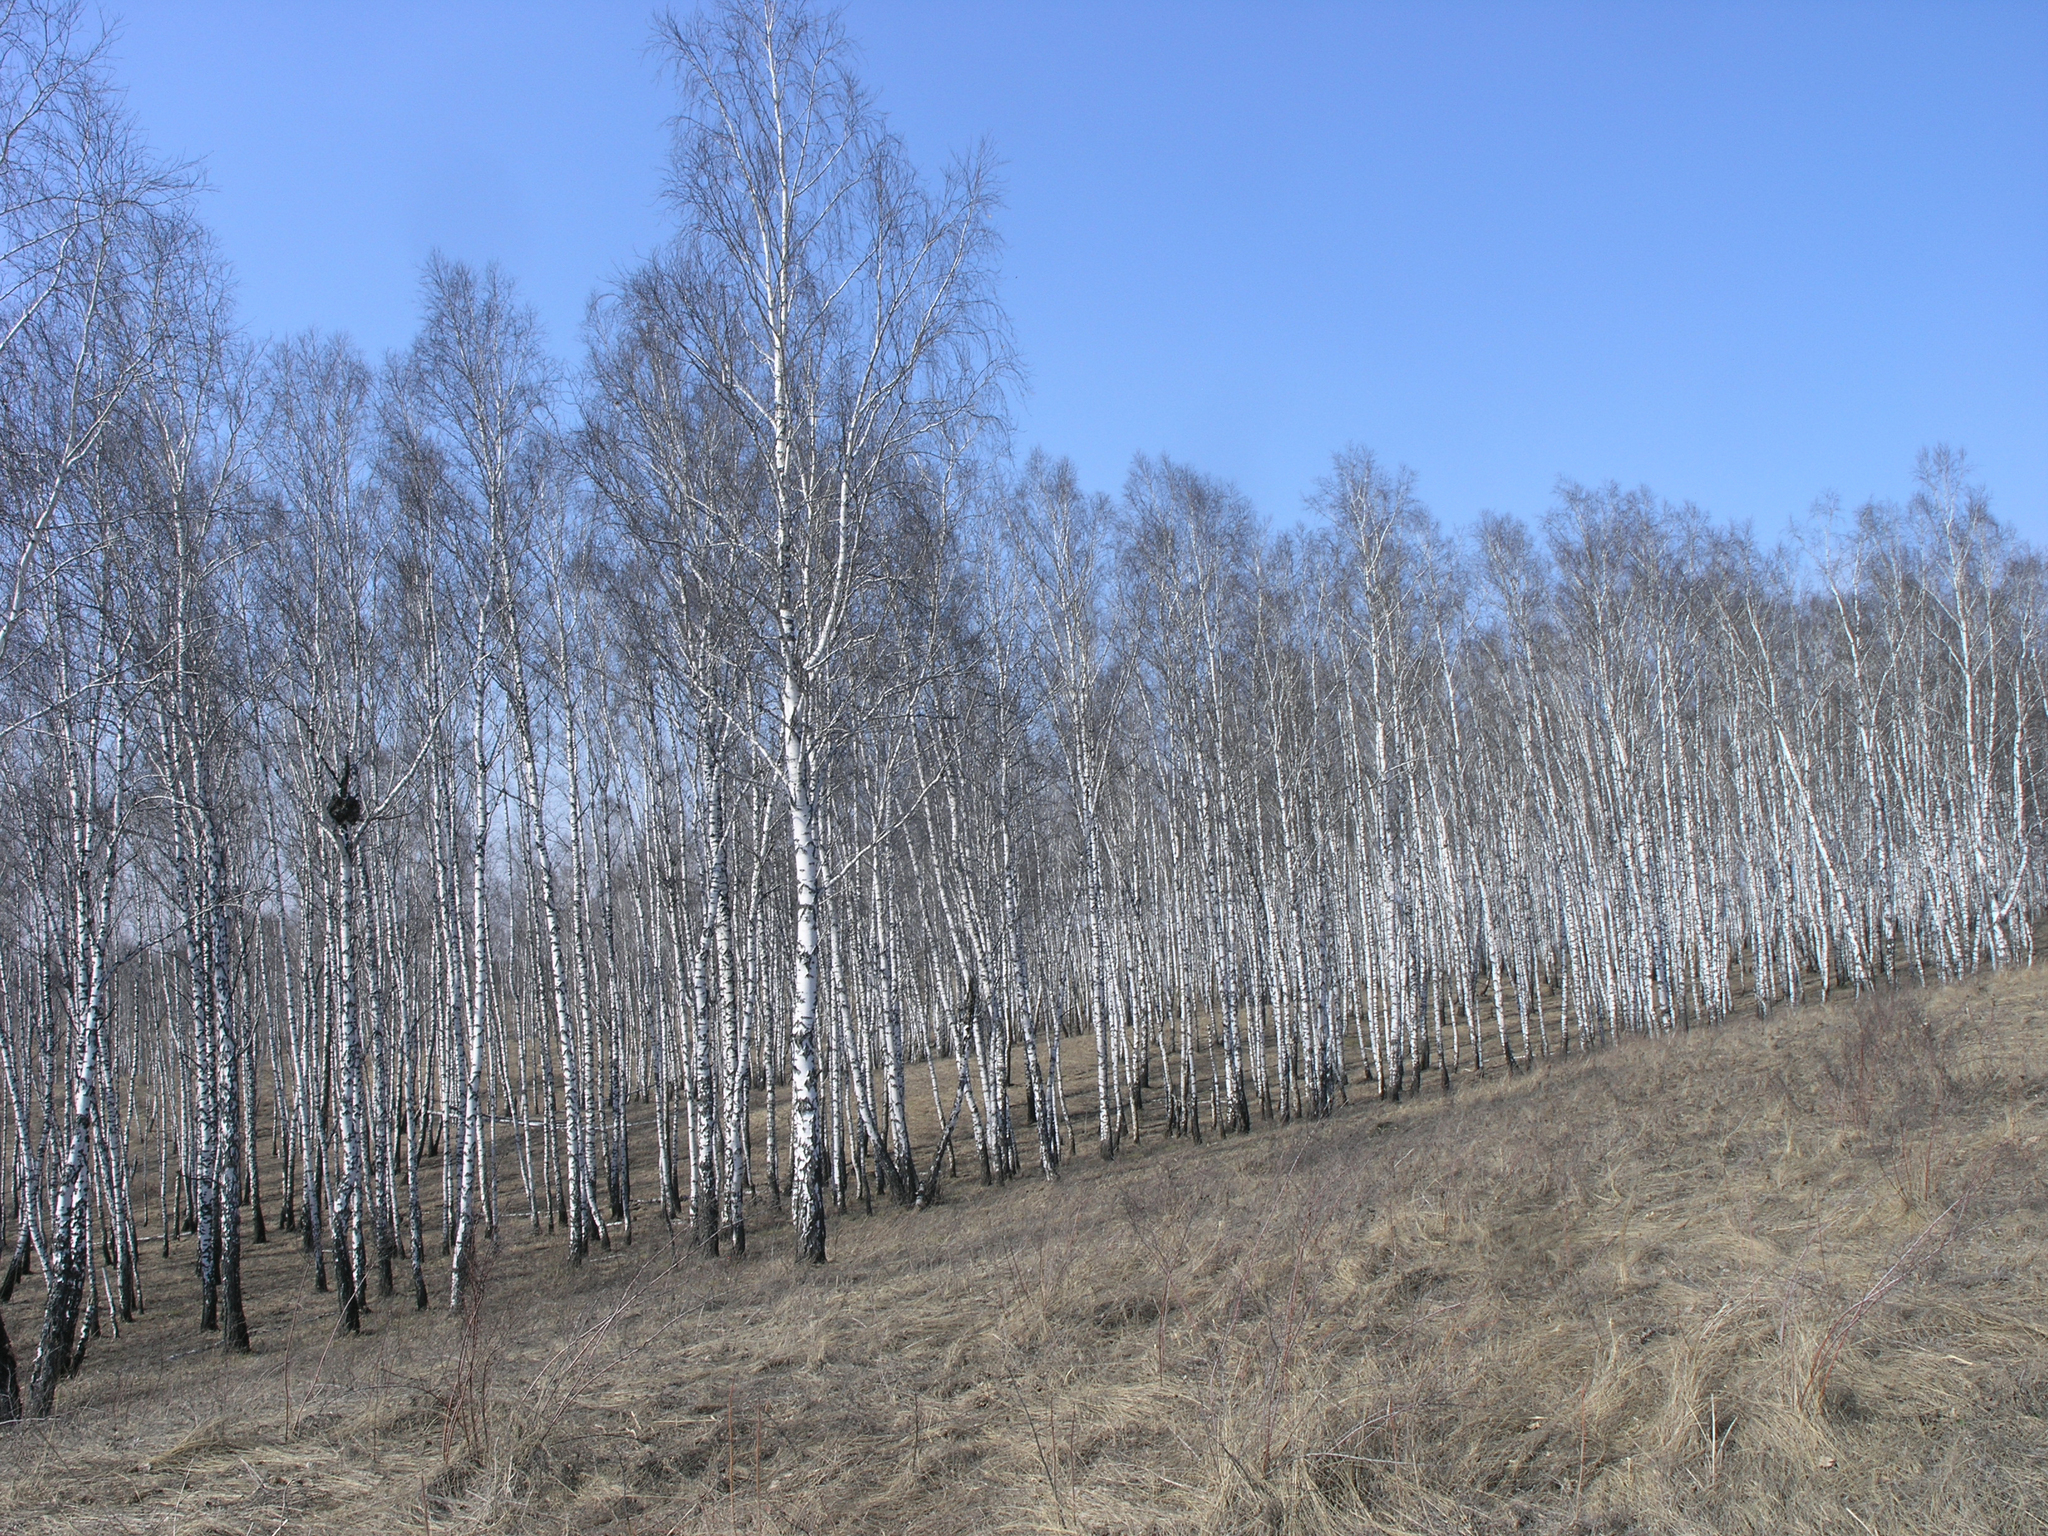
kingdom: Plantae
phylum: Tracheophyta
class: Magnoliopsida
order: Fagales
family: Betulaceae
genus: Betula
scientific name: Betula pendula
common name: Silver birch
